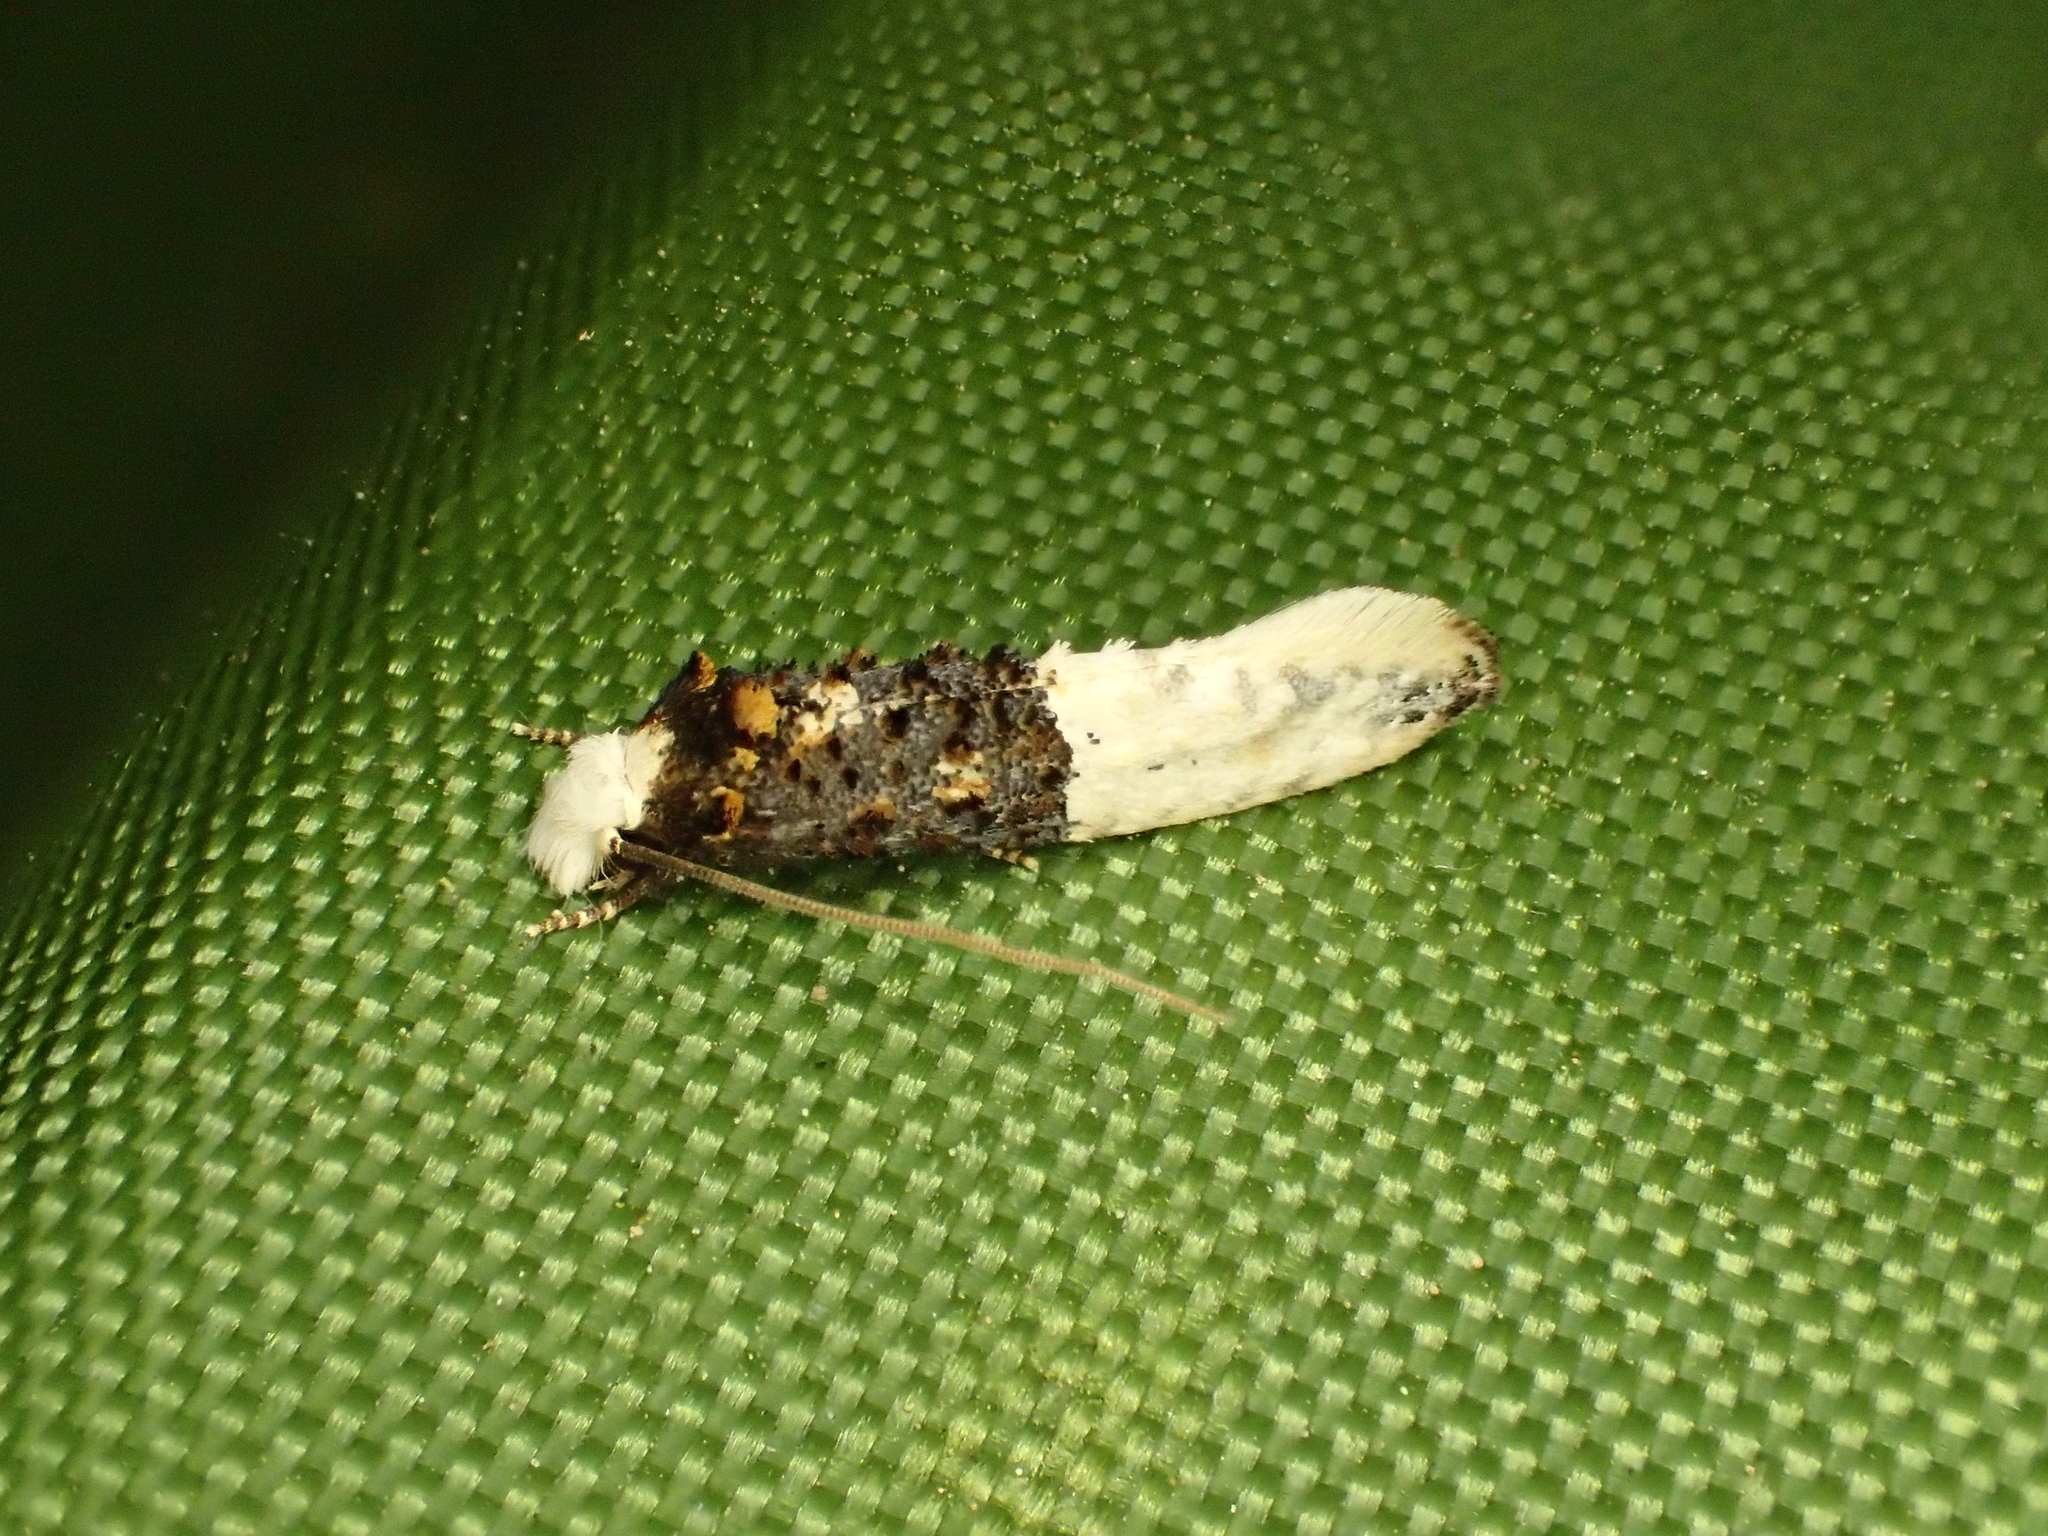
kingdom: Animalia
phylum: Arthropoda
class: Insecta
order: Lepidoptera
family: Tineidae
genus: Trichophaga
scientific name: Trichophaga bipartitella
